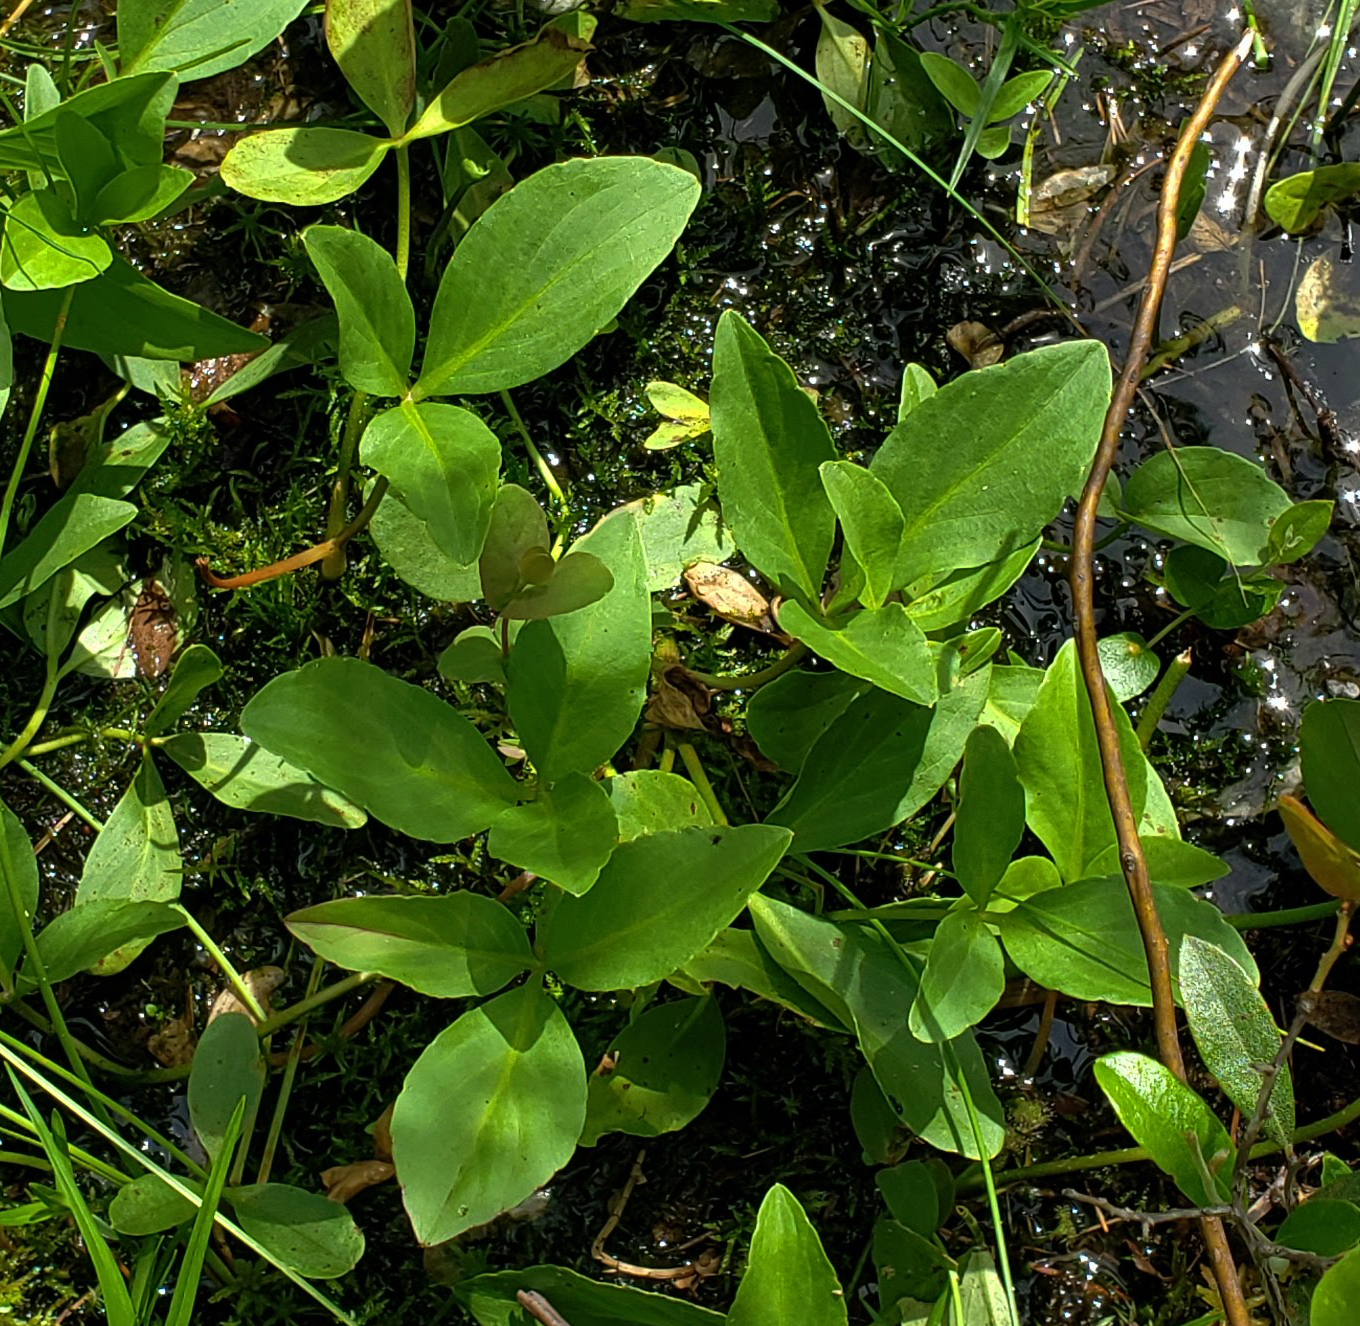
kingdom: Plantae
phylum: Tracheophyta
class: Magnoliopsida
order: Asterales
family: Menyanthaceae
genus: Menyanthes
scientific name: Menyanthes trifoliata
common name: Bogbean
